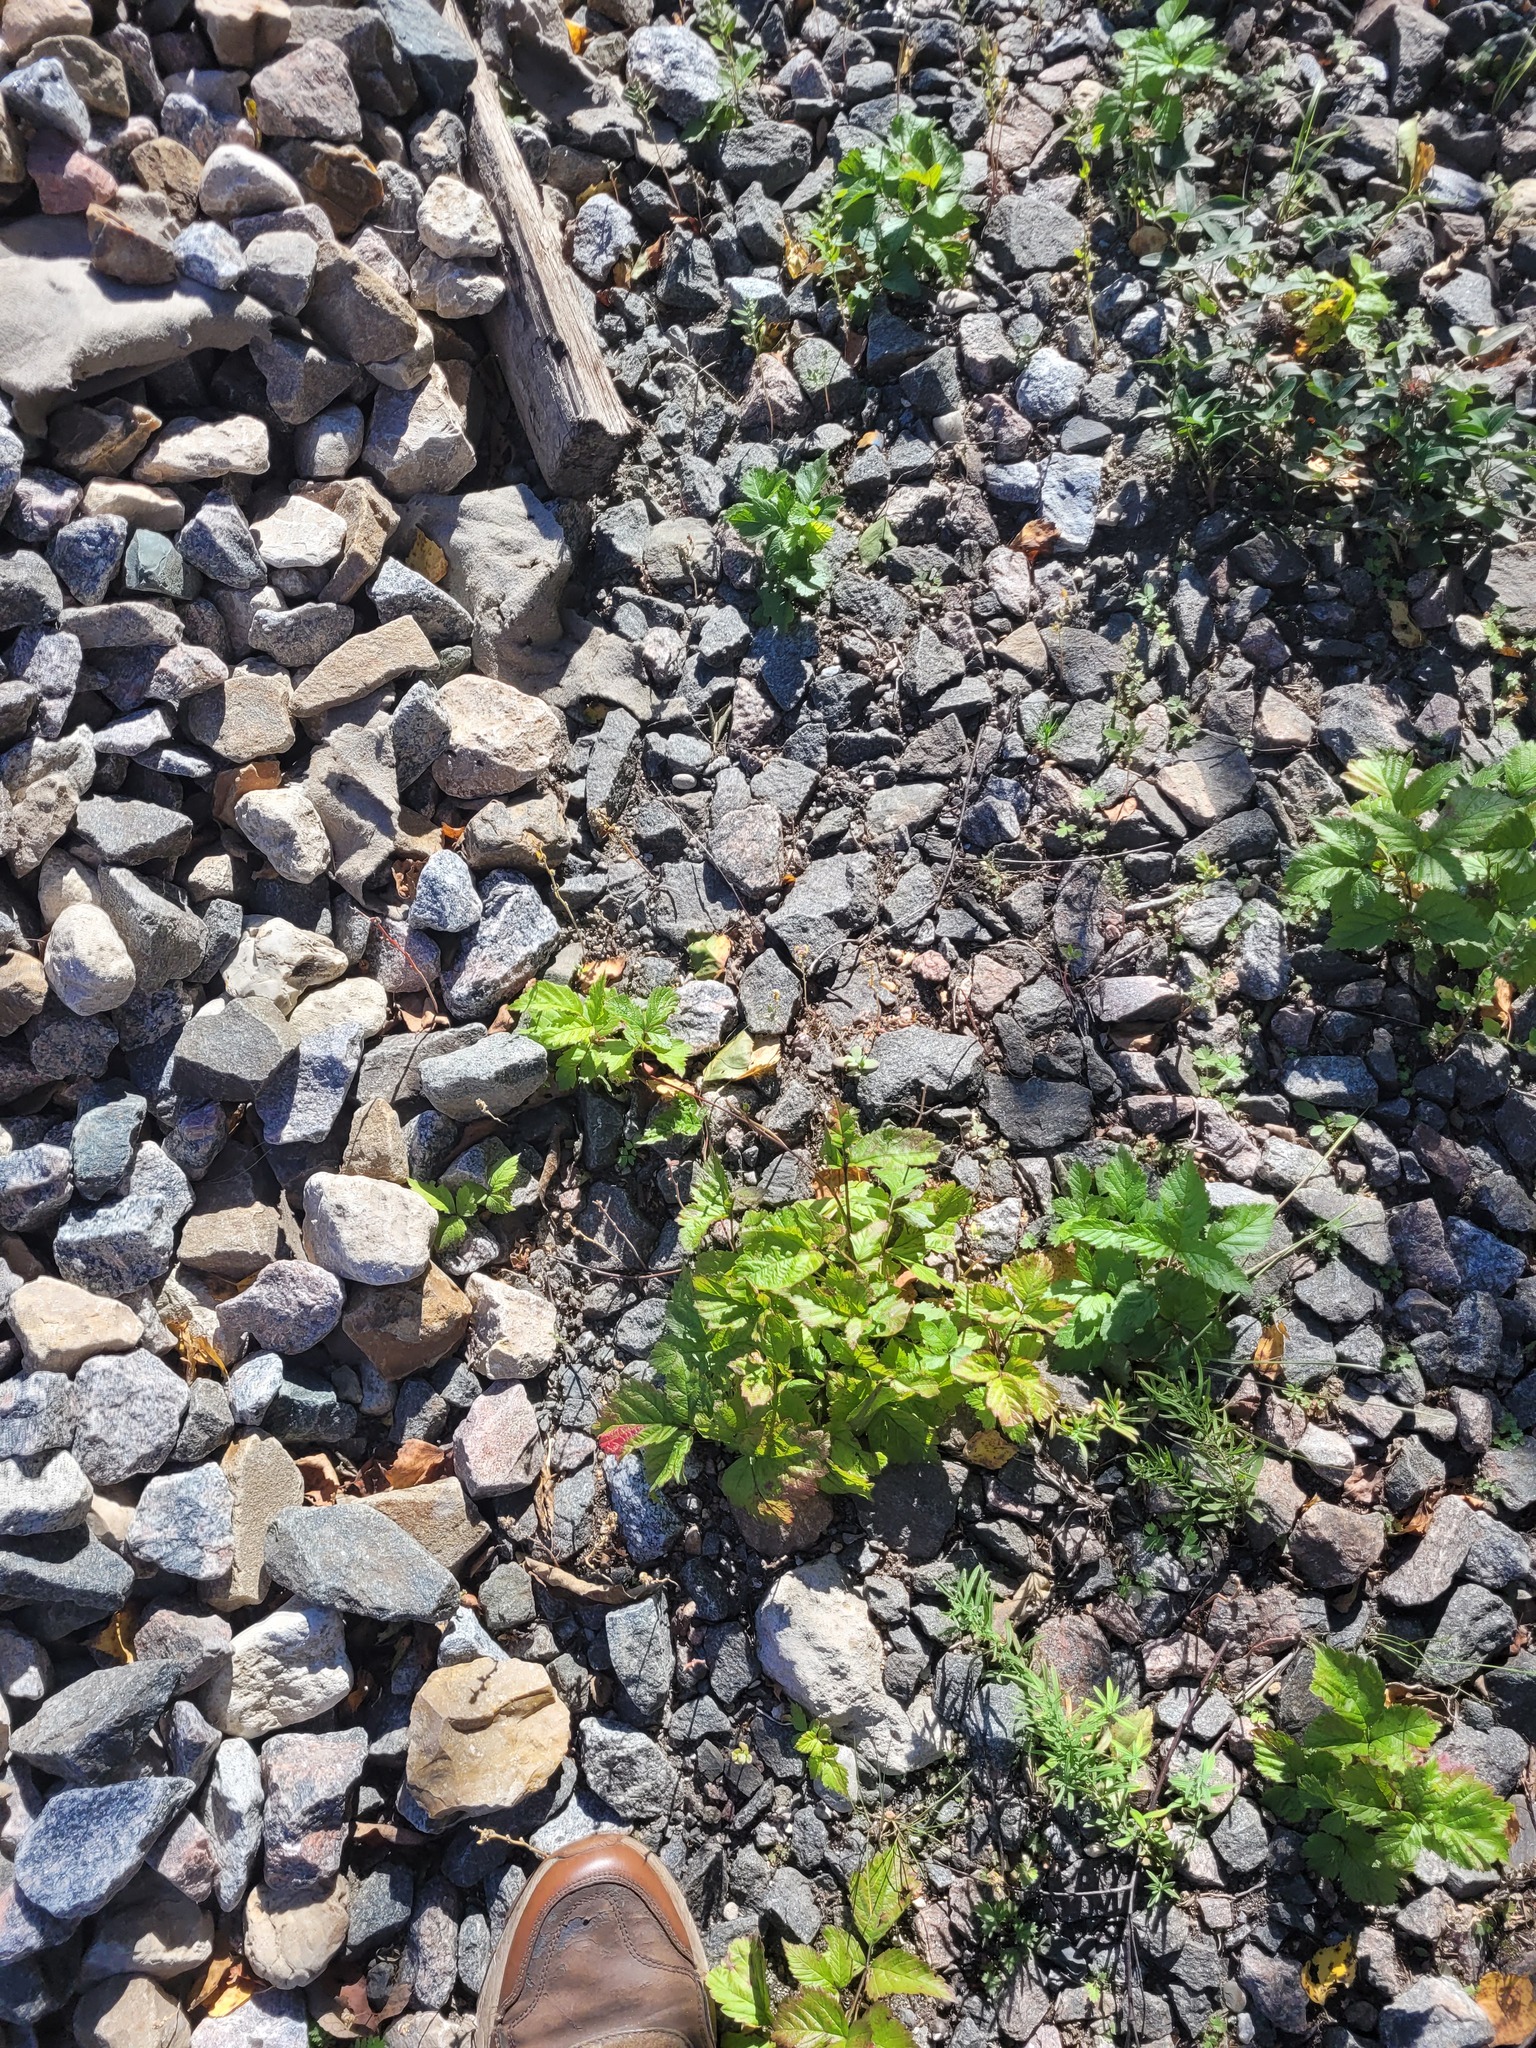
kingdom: Plantae
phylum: Tracheophyta
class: Magnoliopsida
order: Rosales
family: Rosaceae
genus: Rubus
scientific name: Rubus saxatilis
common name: Stone bramble
